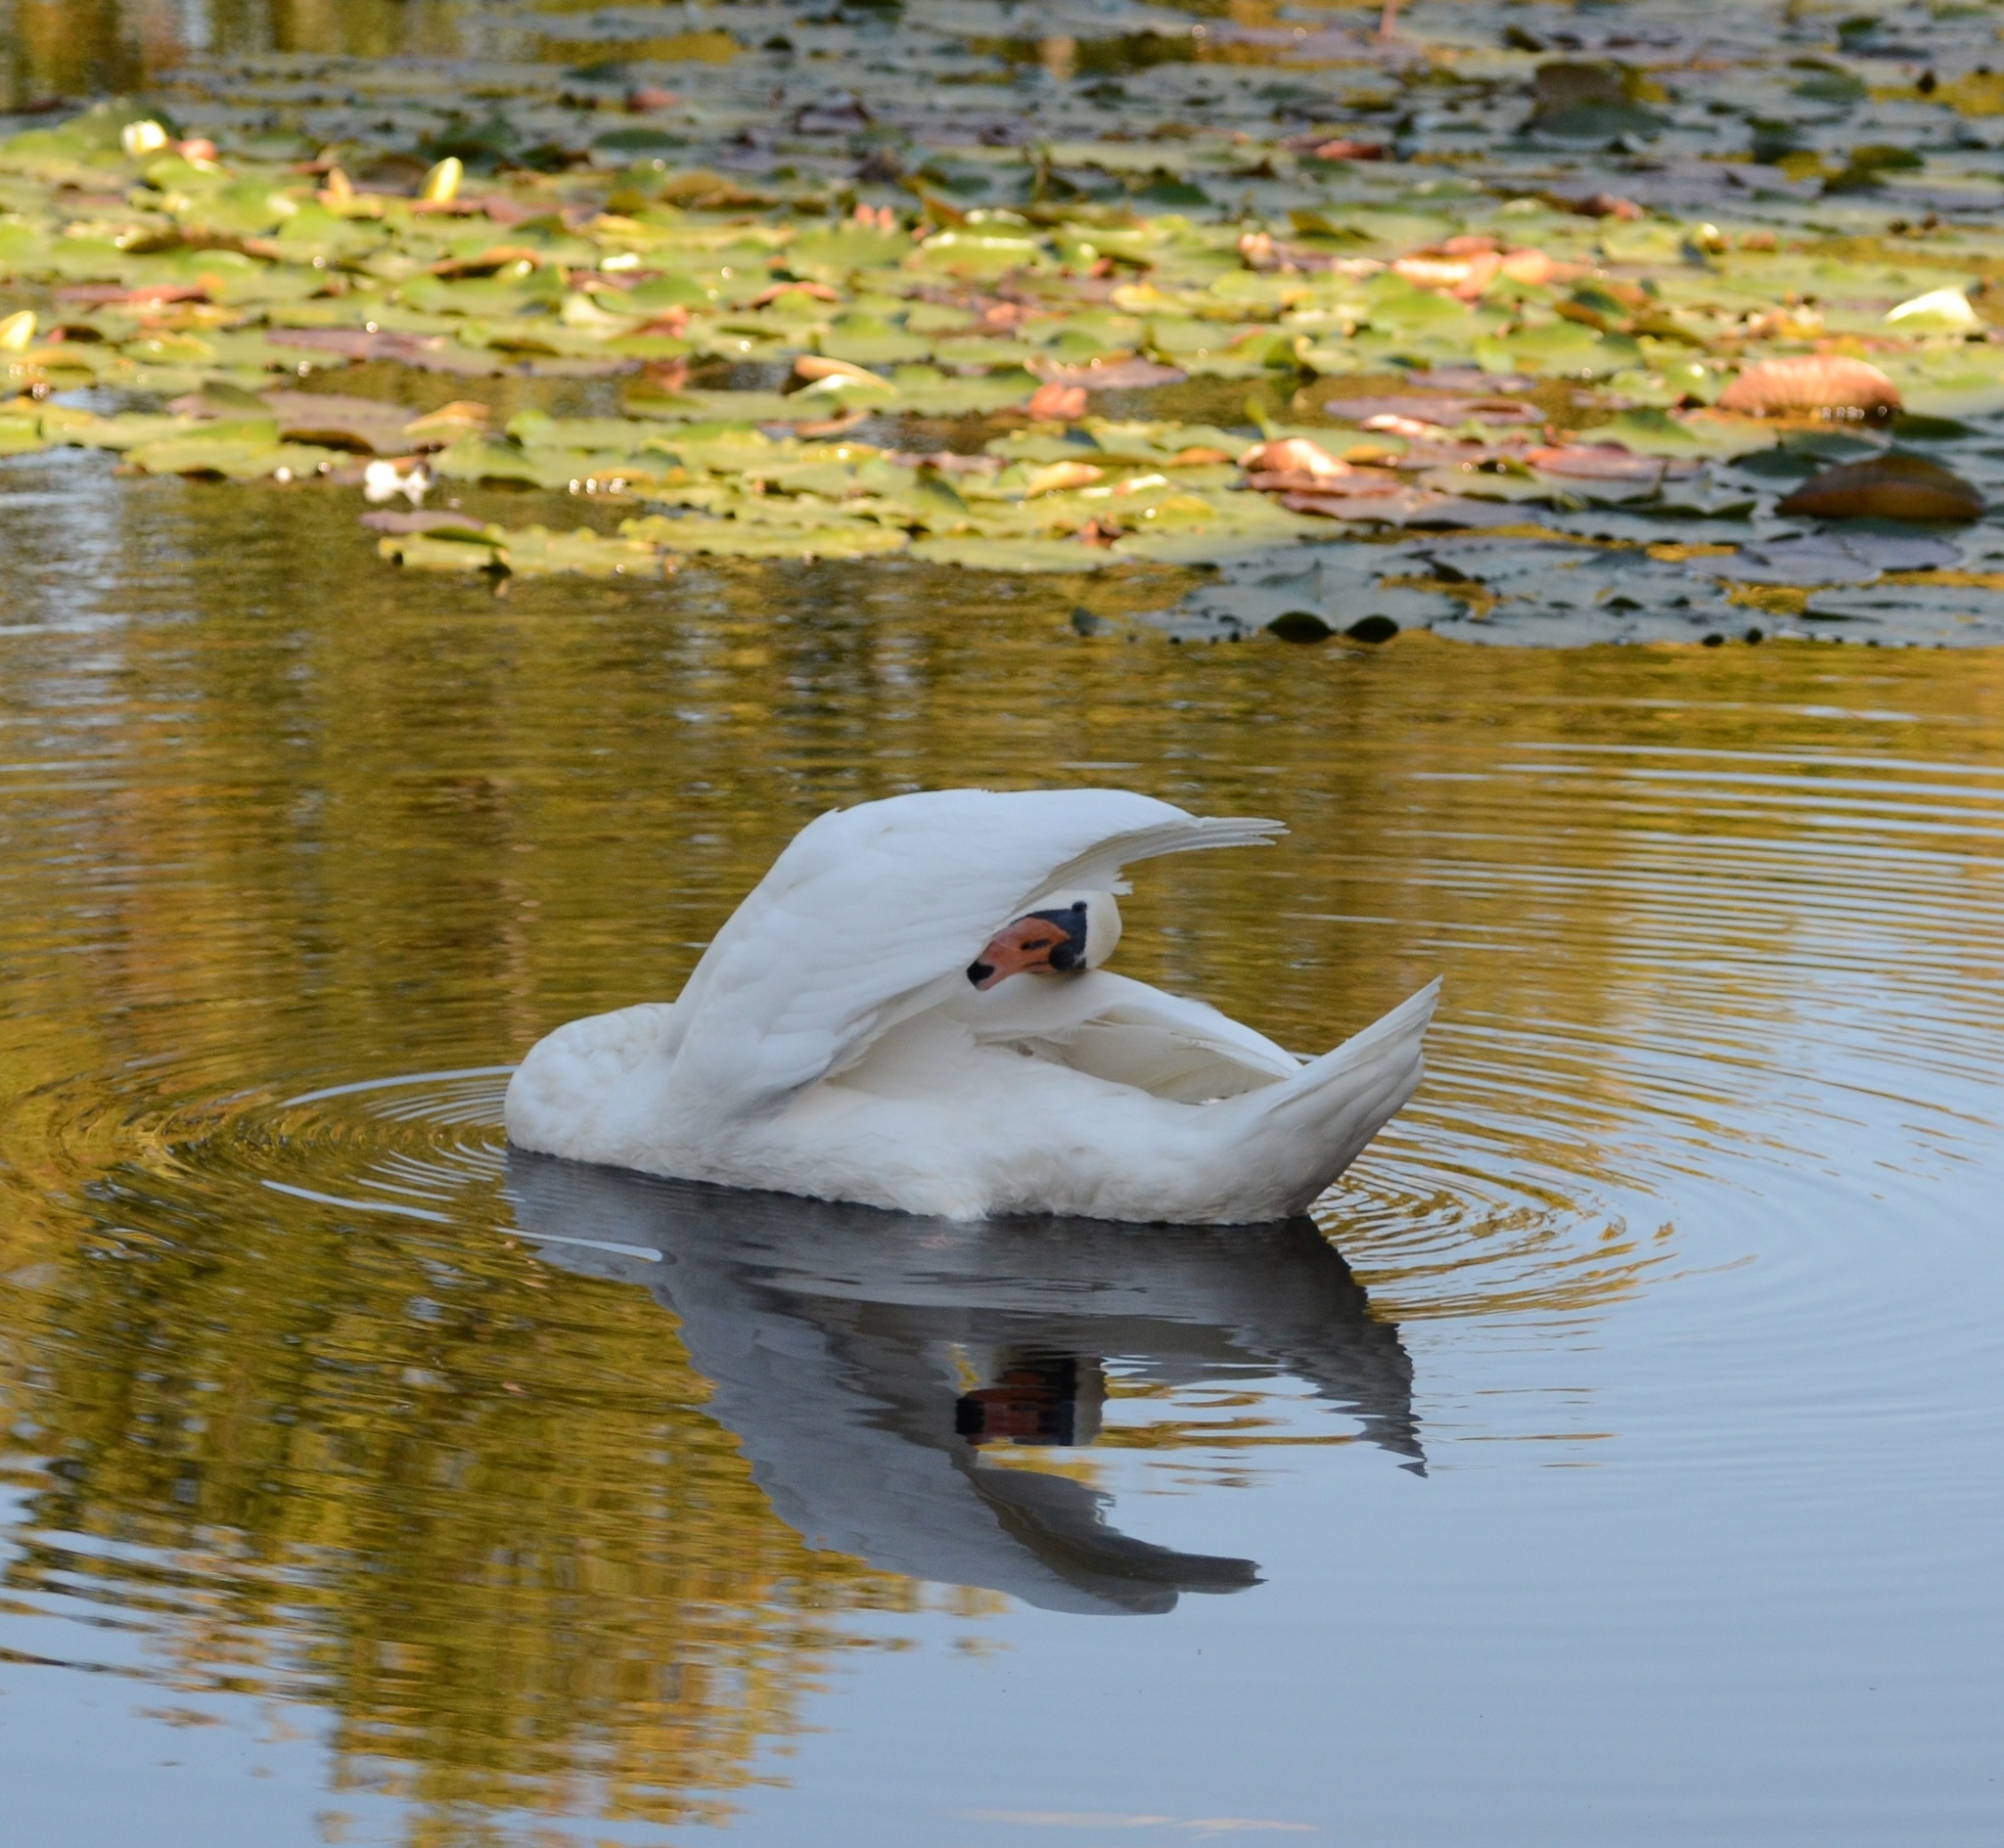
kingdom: Animalia
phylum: Chordata
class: Aves
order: Anseriformes
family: Anatidae
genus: Cygnus
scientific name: Cygnus olor
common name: Mute swan
